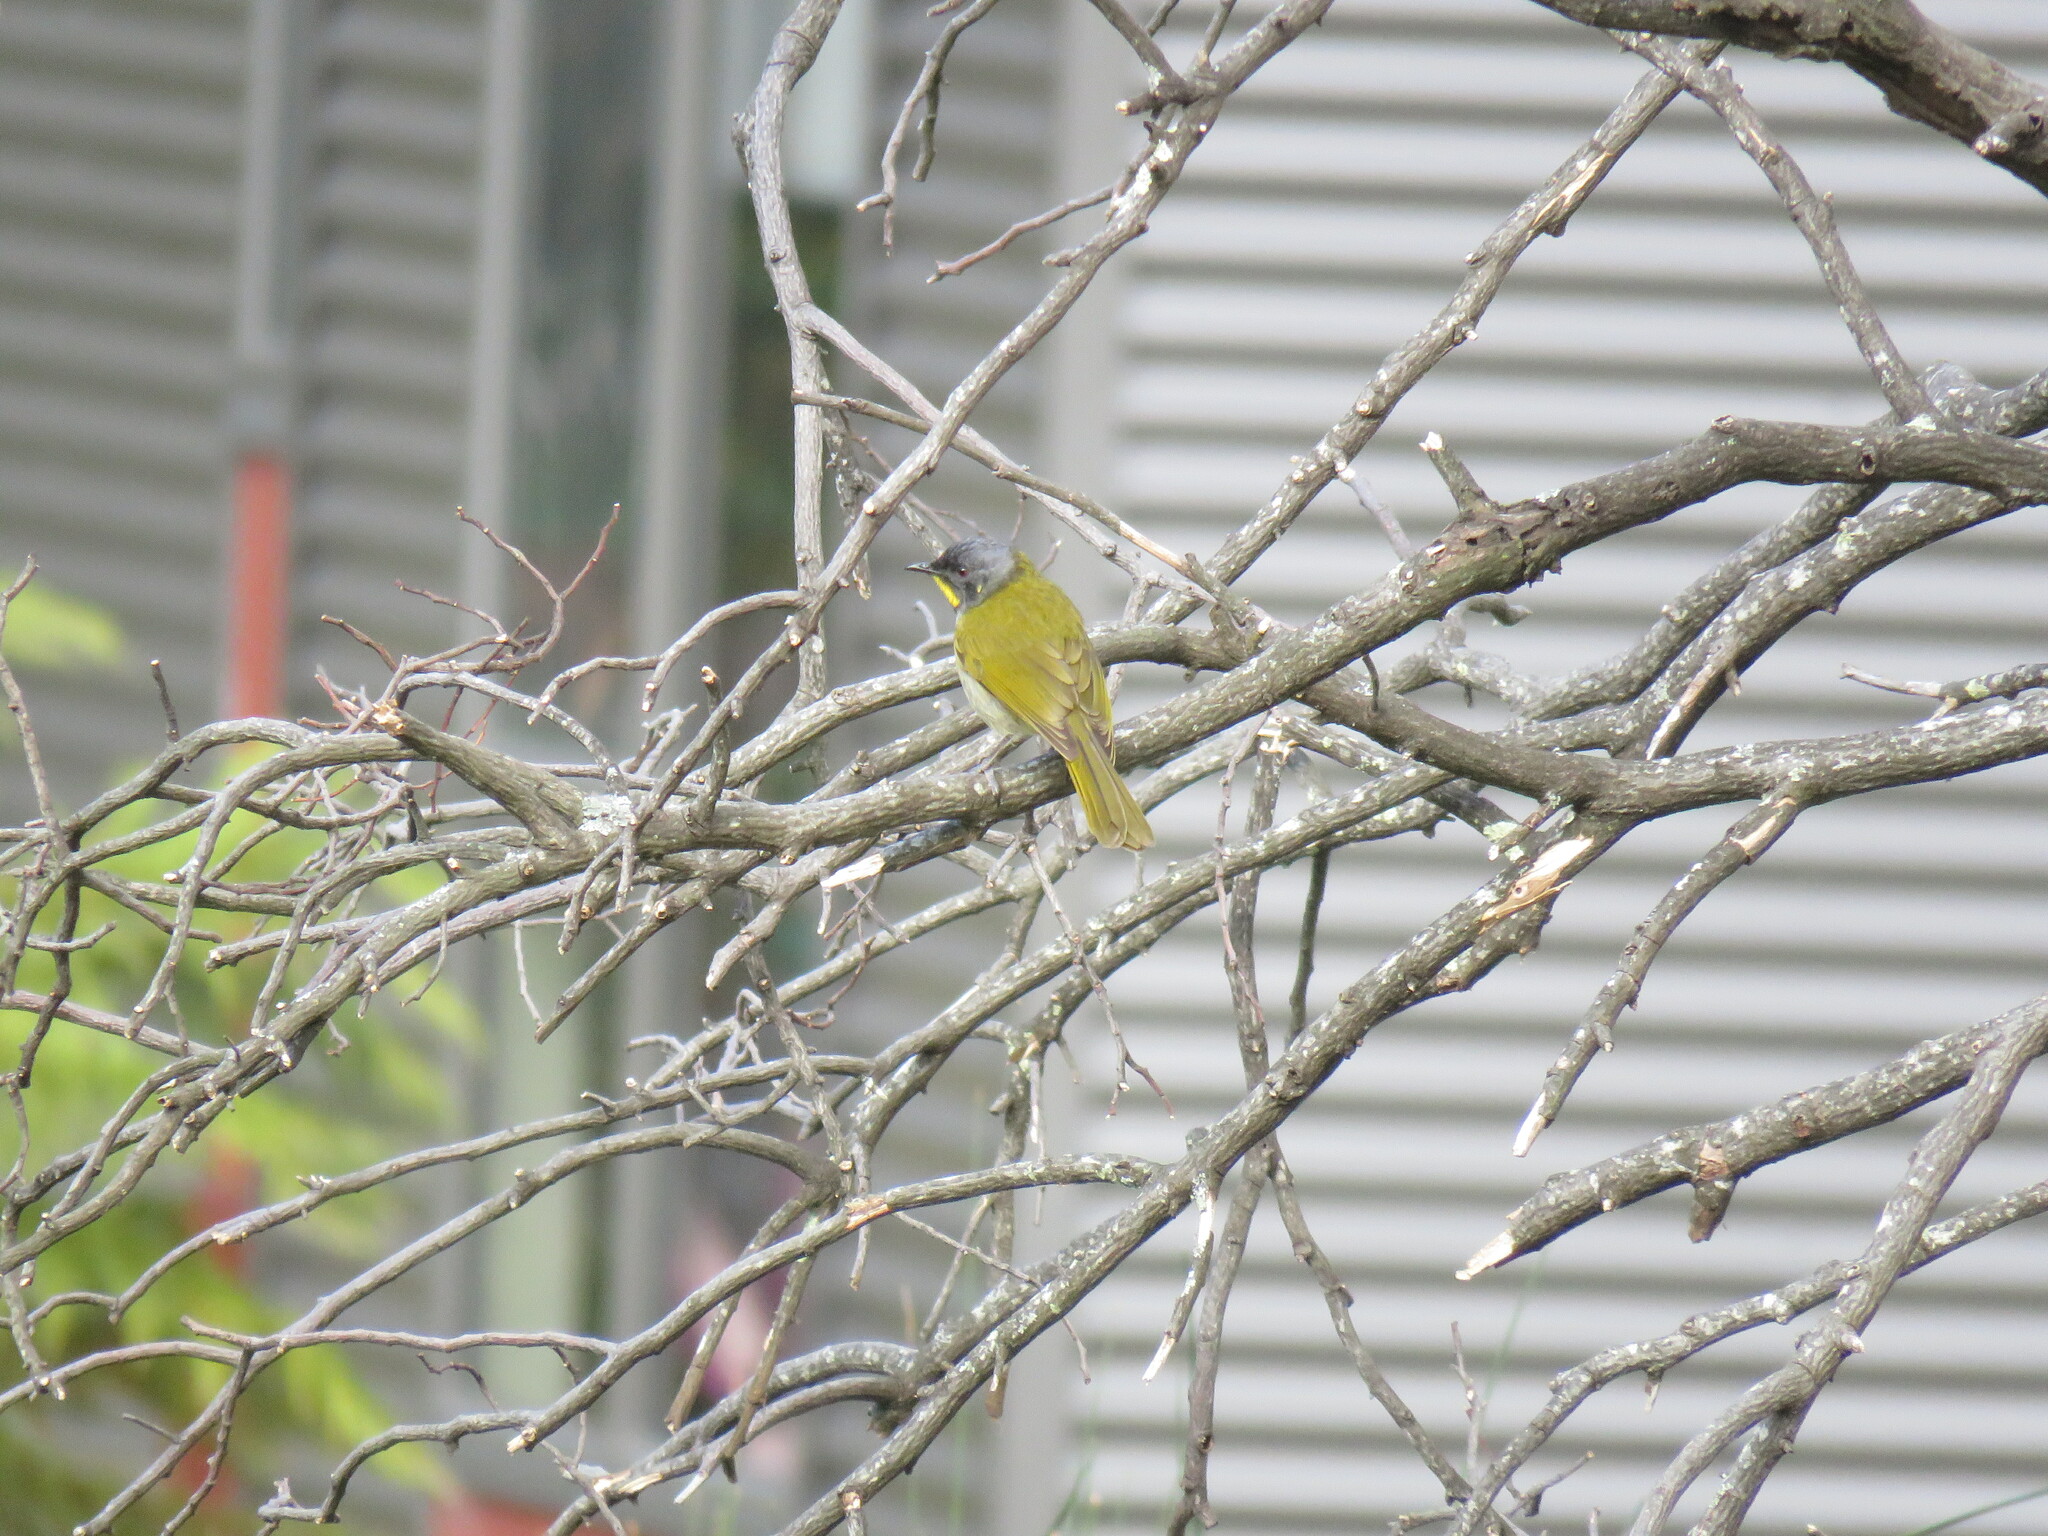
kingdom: Animalia
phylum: Chordata
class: Aves
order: Passeriformes
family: Meliphagidae
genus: Nesoptilotis
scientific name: Nesoptilotis flavicollis
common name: Yellow-throated honeyeater
